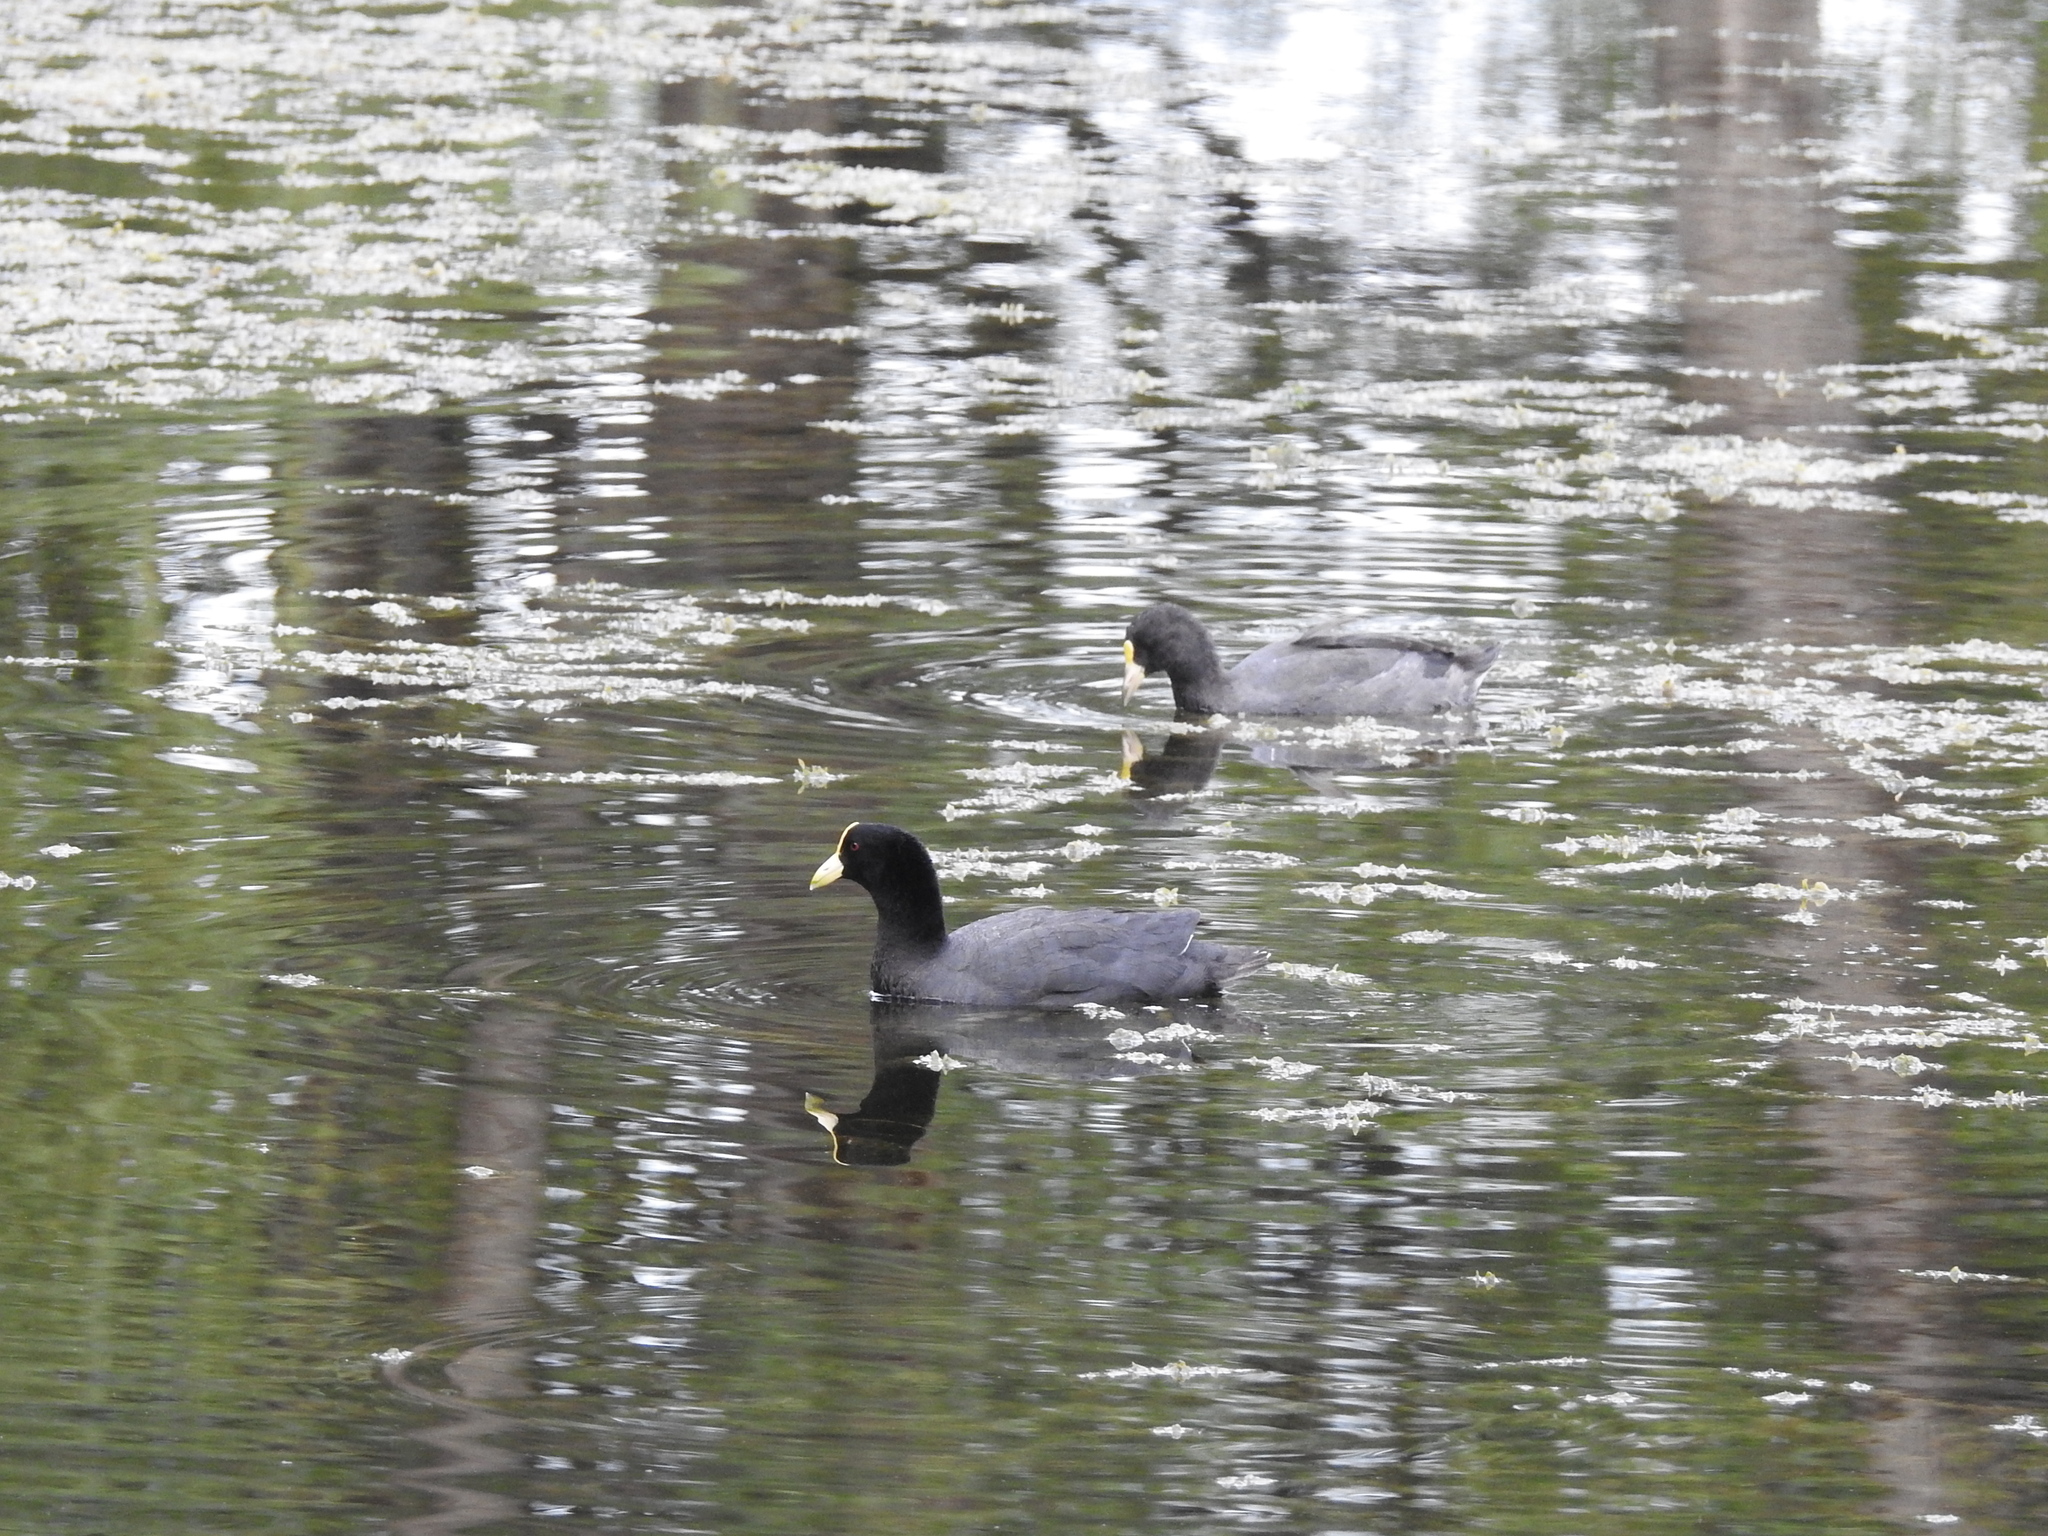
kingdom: Animalia
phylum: Chordata
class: Aves
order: Gruiformes
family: Rallidae
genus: Fulica
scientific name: Fulica leucoptera
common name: White-winged coot
